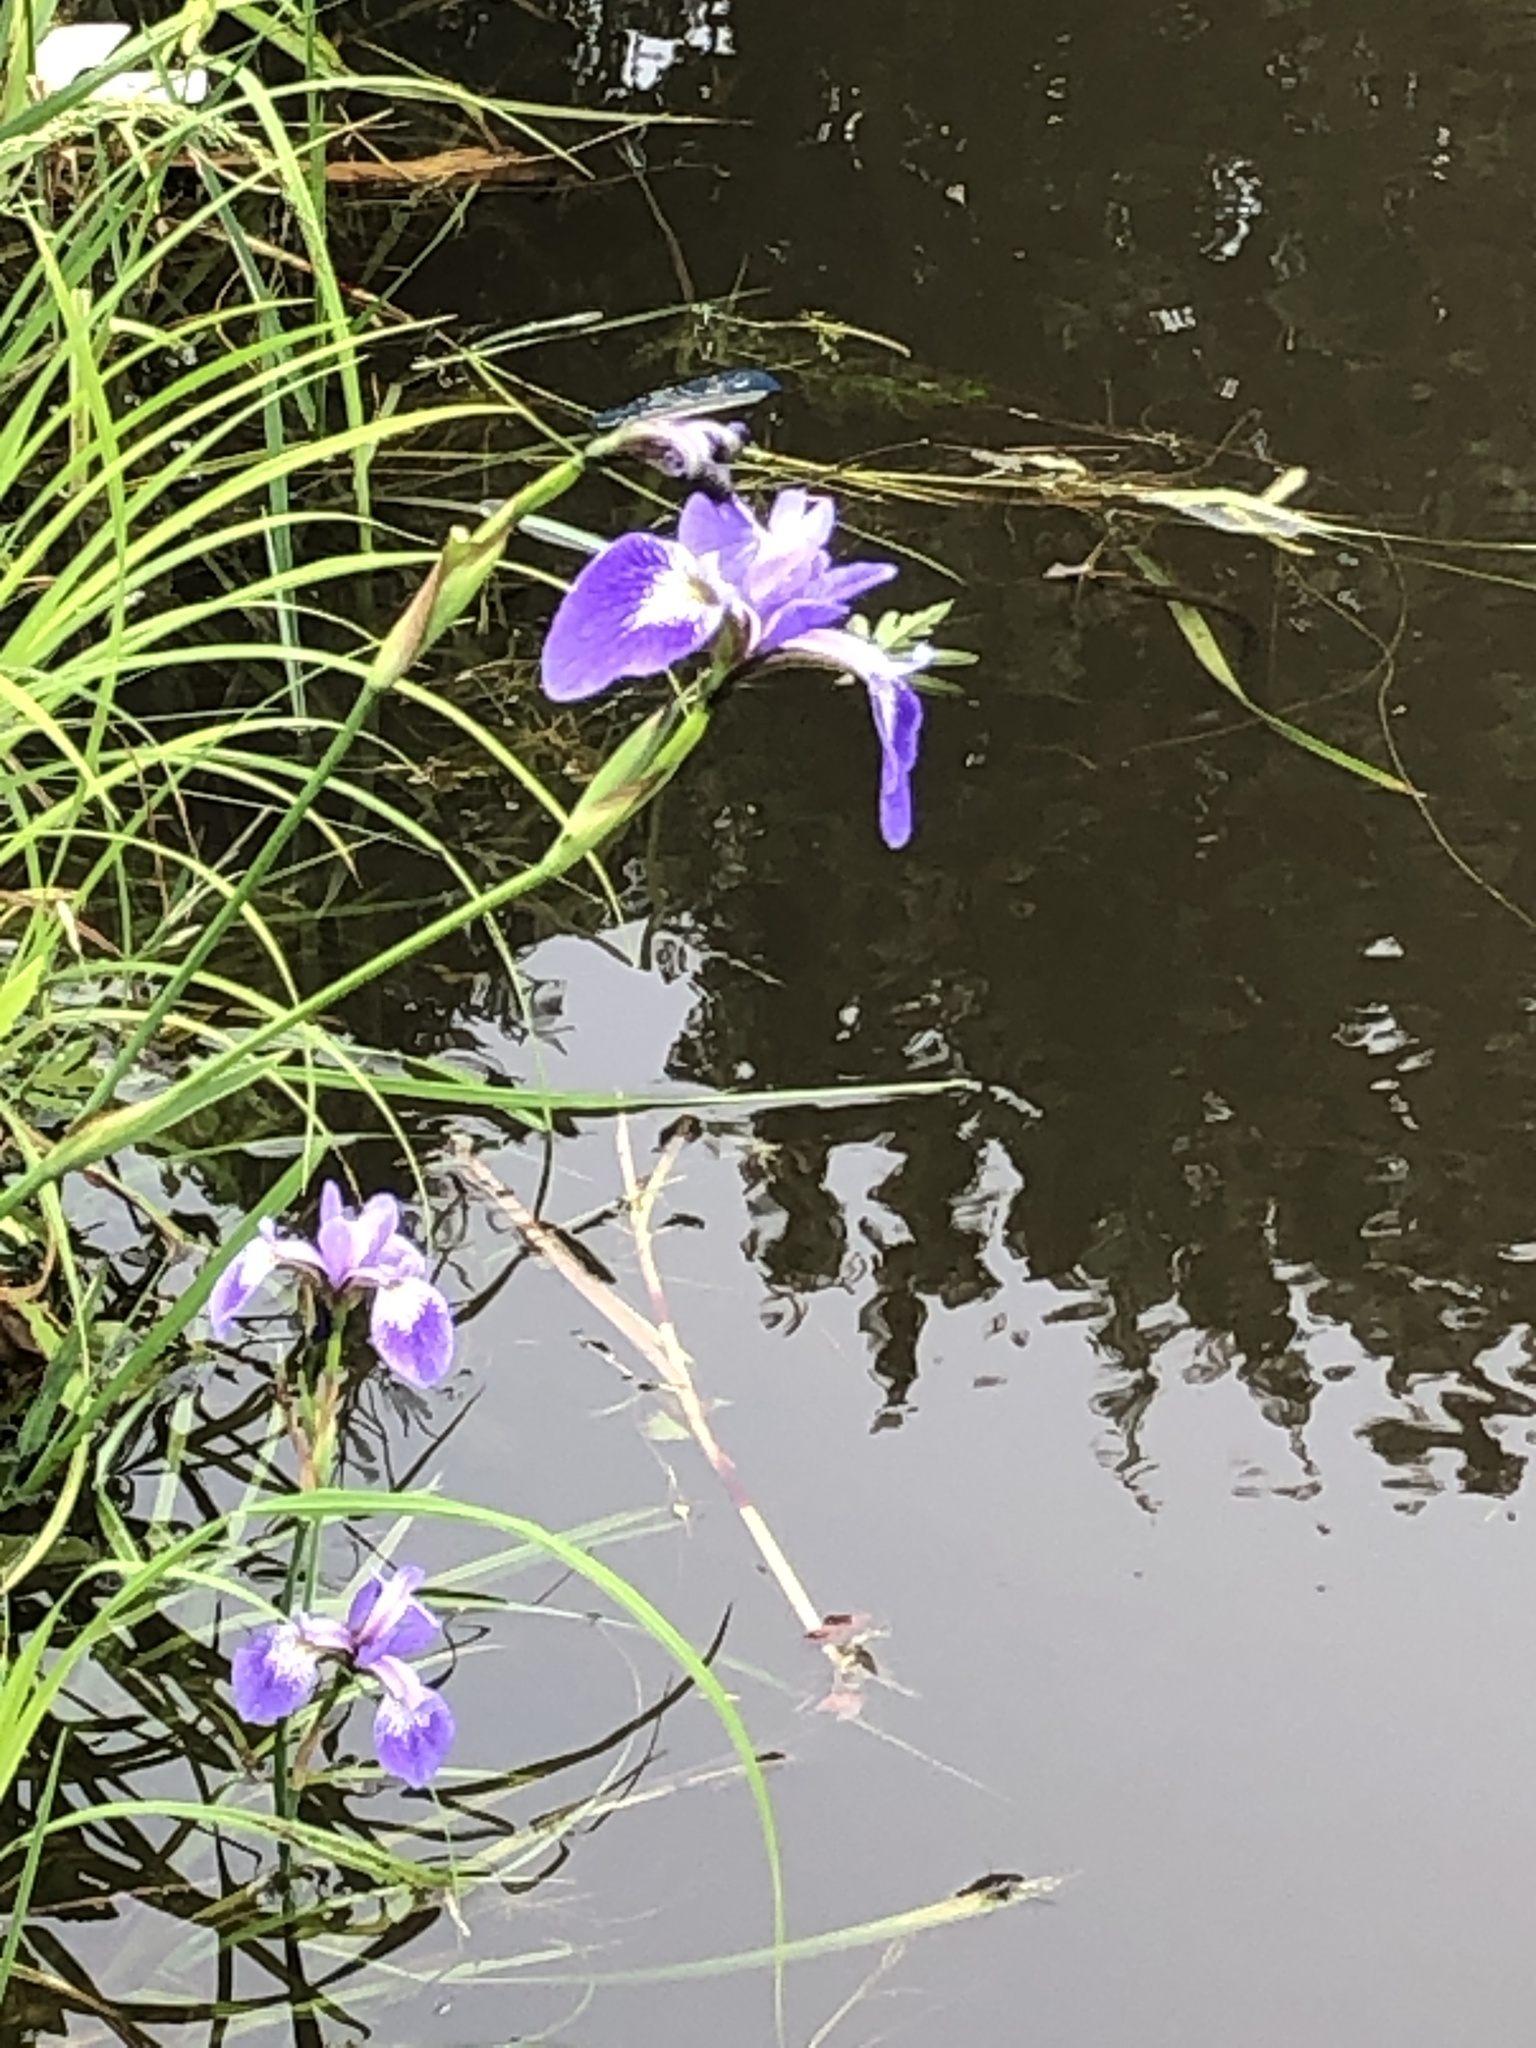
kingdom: Plantae
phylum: Tracheophyta
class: Liliopsida
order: Asparagales
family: Iridaceae
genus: Iris
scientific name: Iris versicolor
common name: Purple iris
